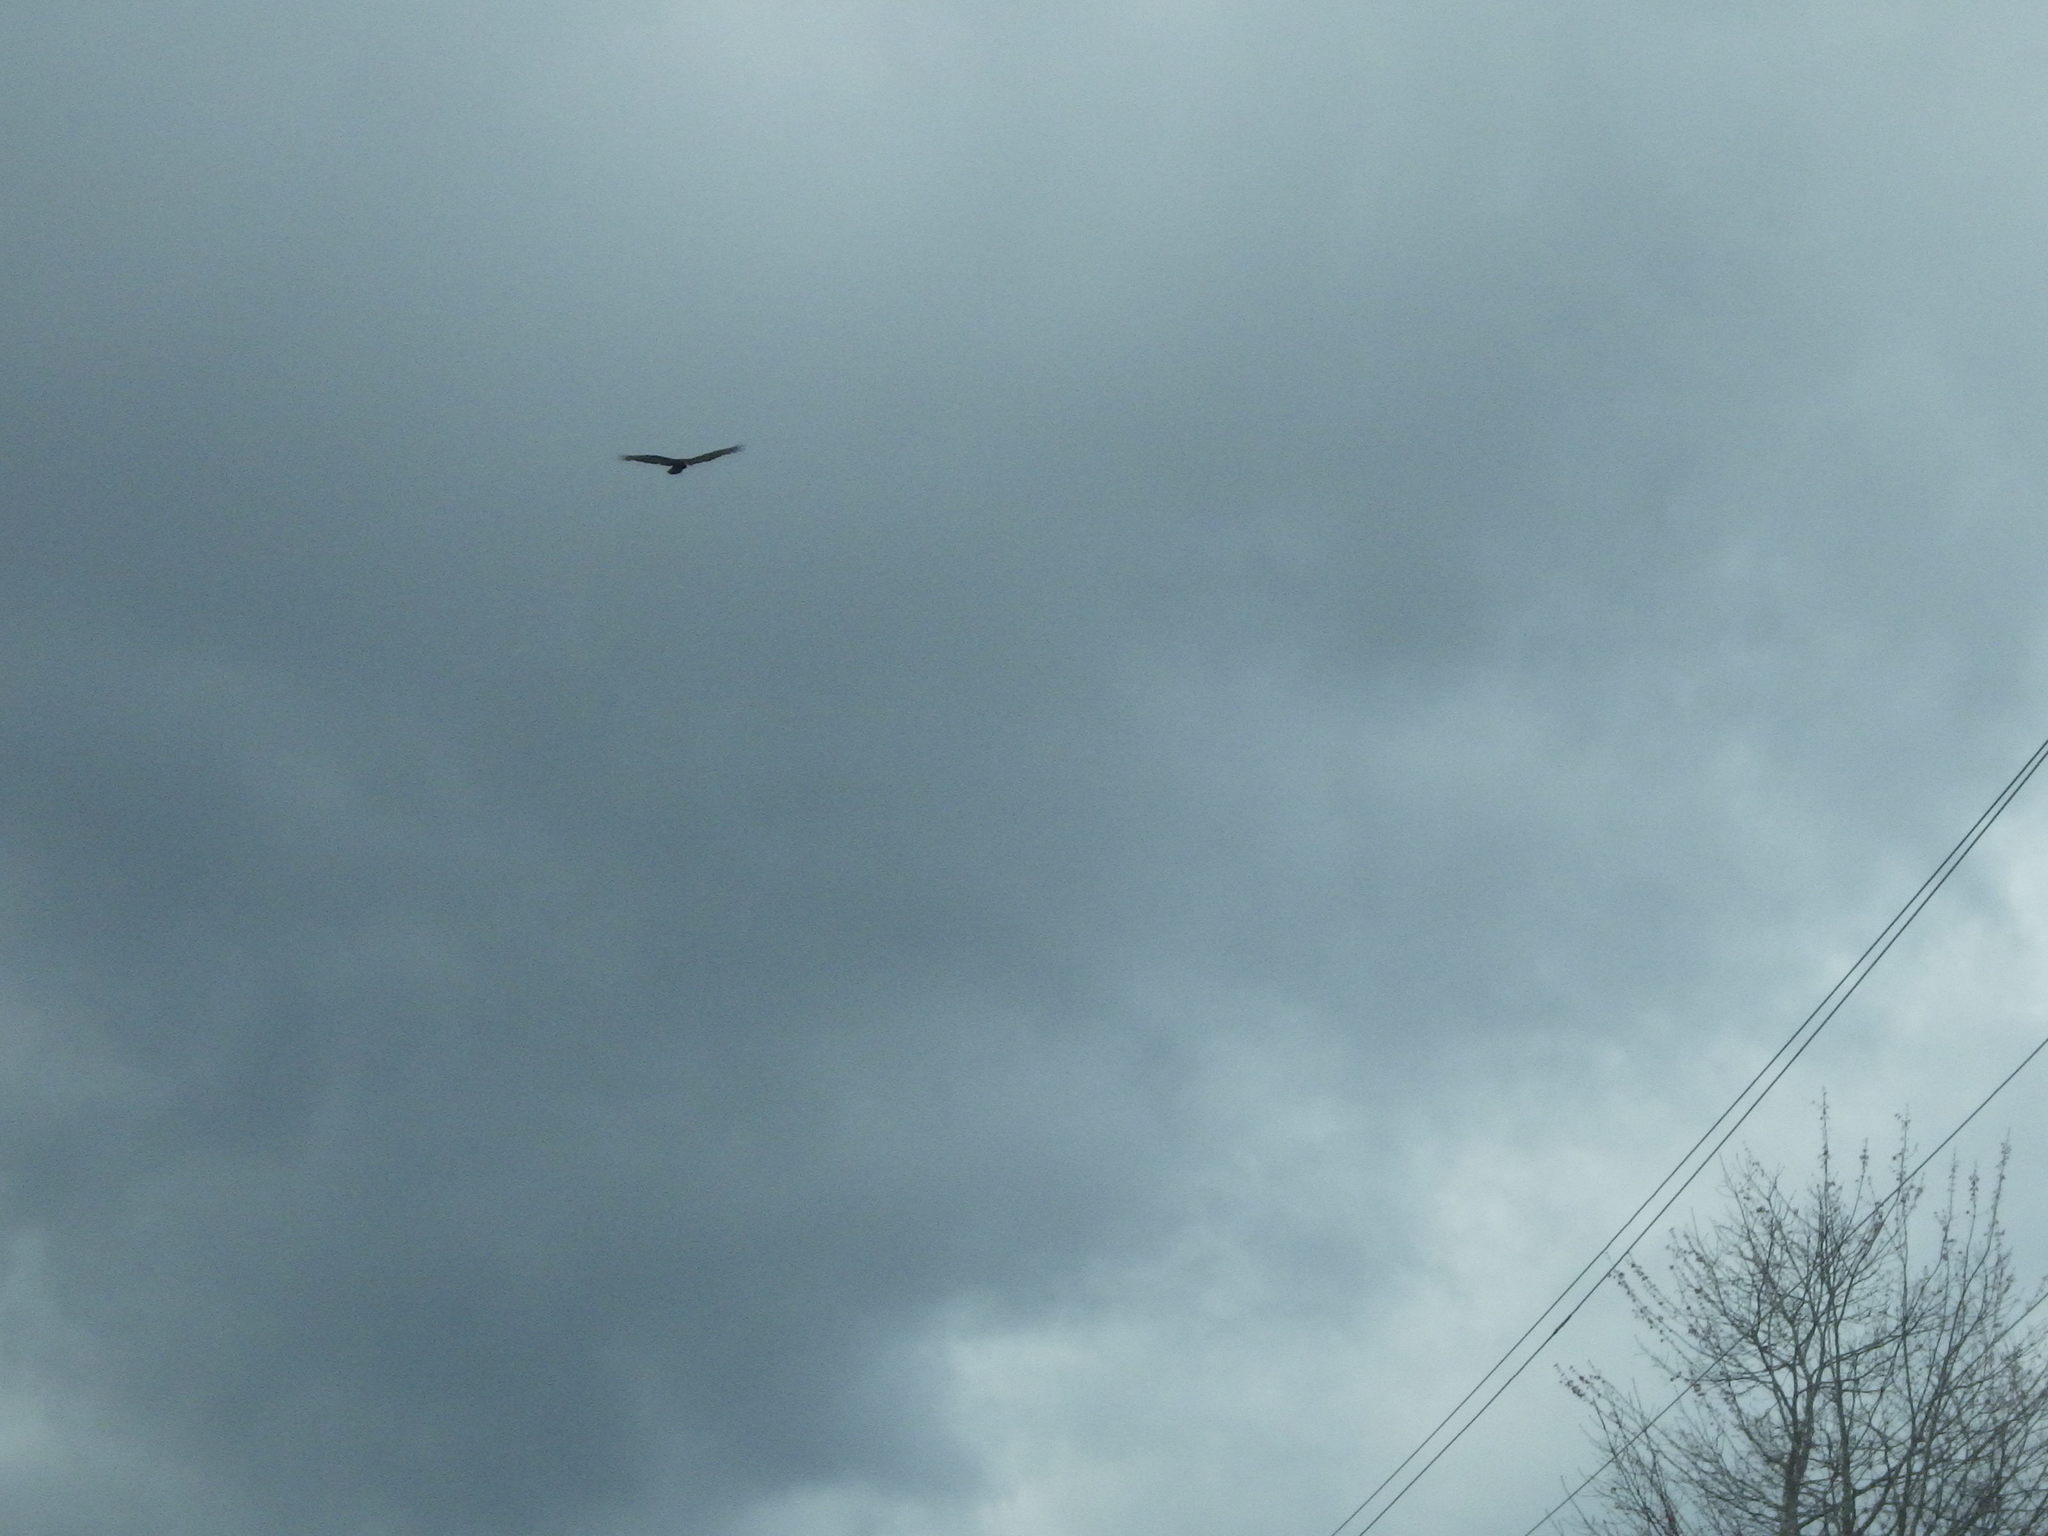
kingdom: Animalia
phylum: Chordata
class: Aves
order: Accipitriformes
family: Cathartidae
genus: Cathartes
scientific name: Cathartes aura
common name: Turkey vulture
